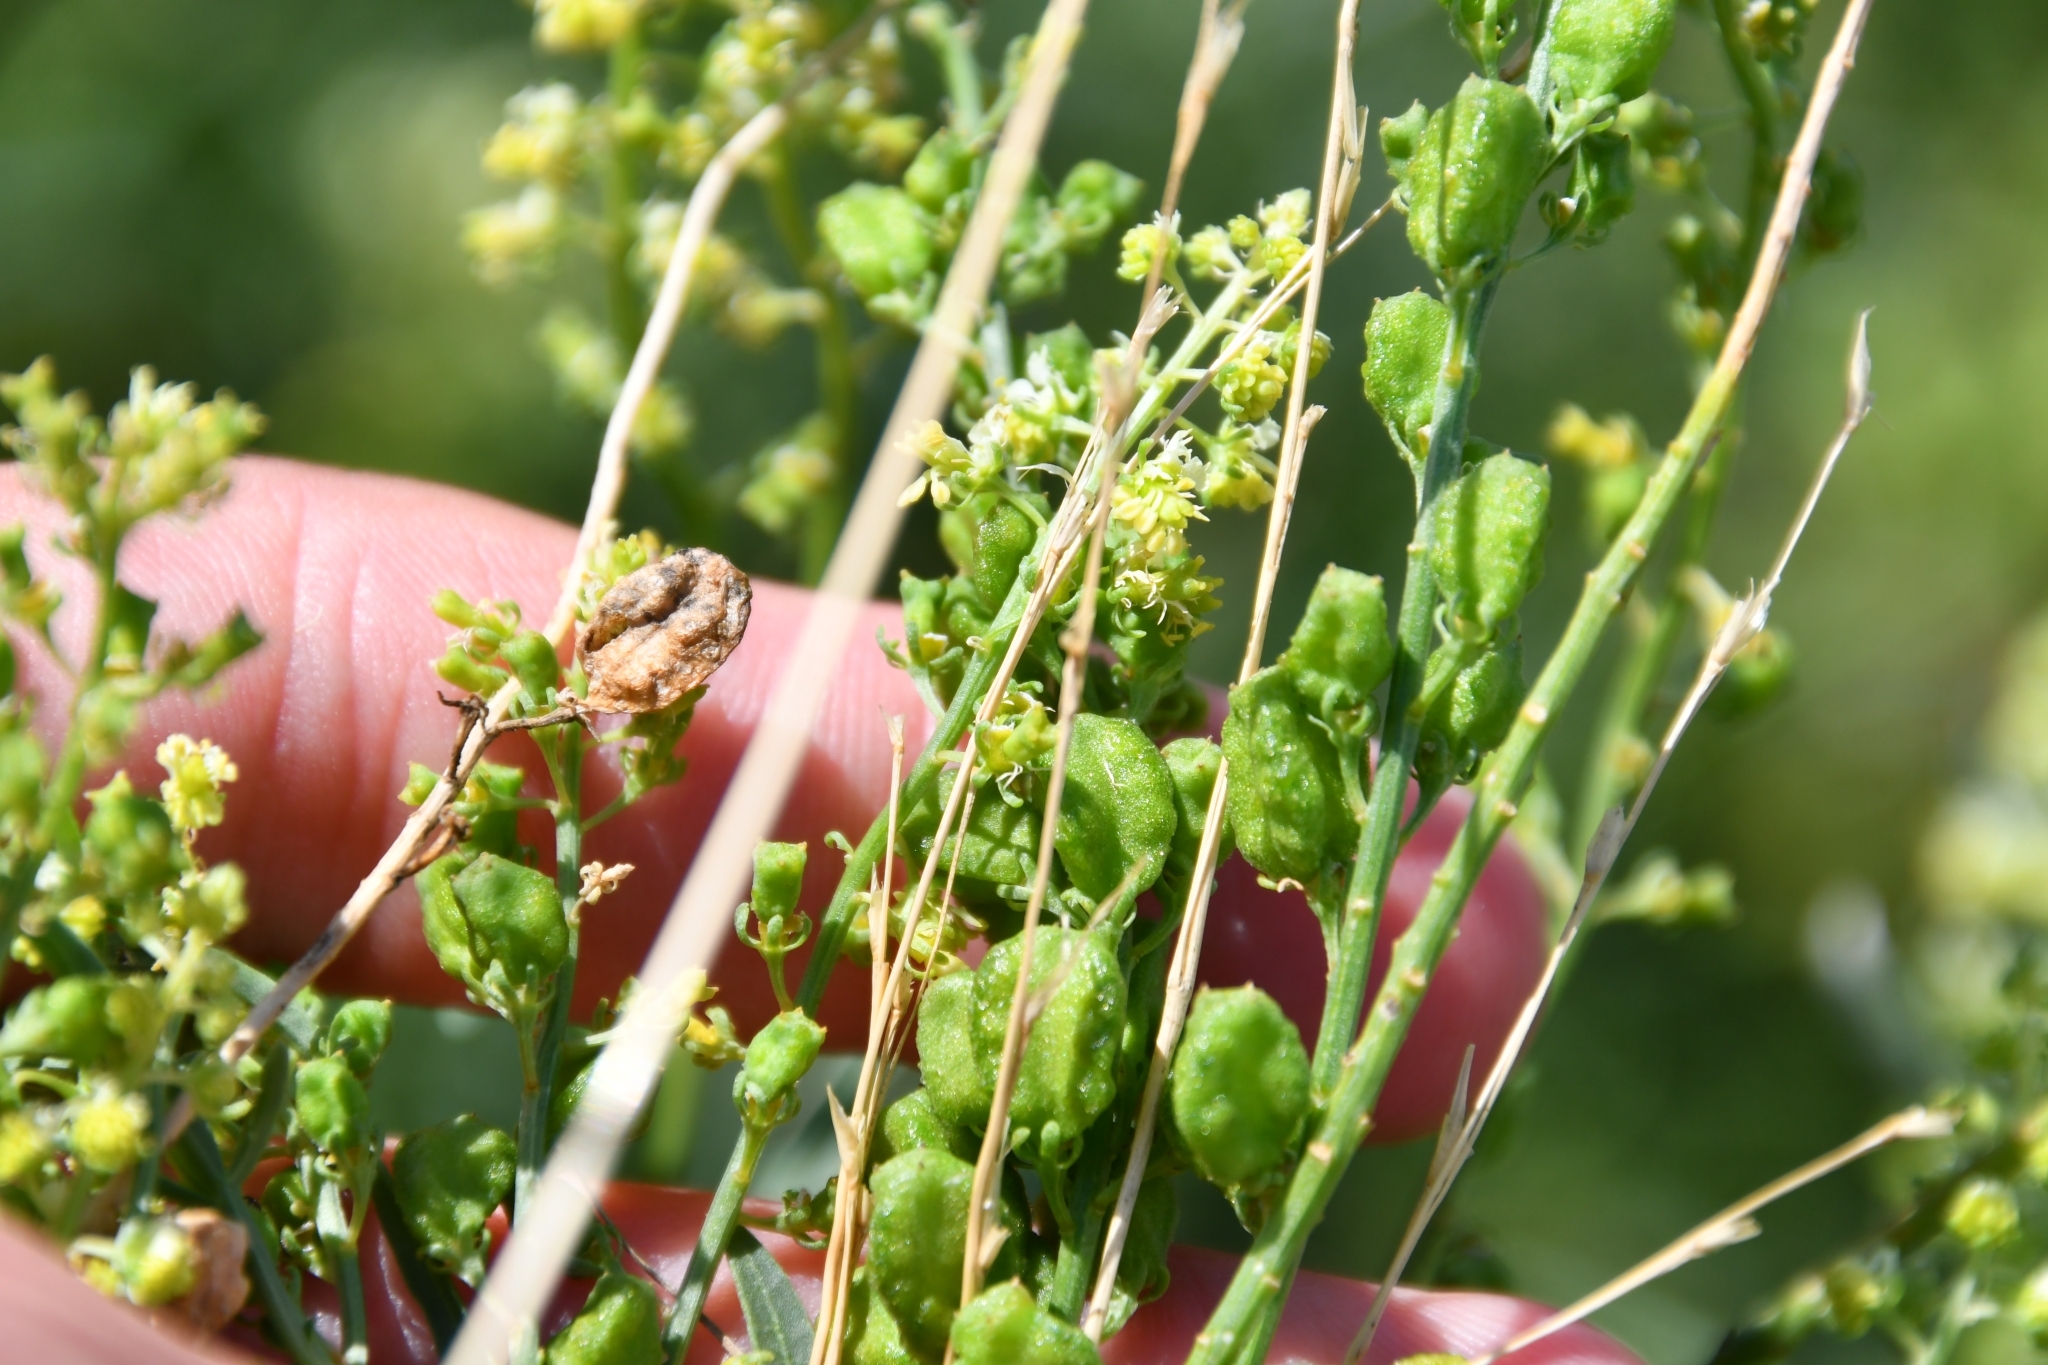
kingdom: Plantae
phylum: Tracheophyta
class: Magnoliopsida
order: Brassicales
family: Resedaceae
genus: Reseda
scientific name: Reseda lutea
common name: Wild mignonette
